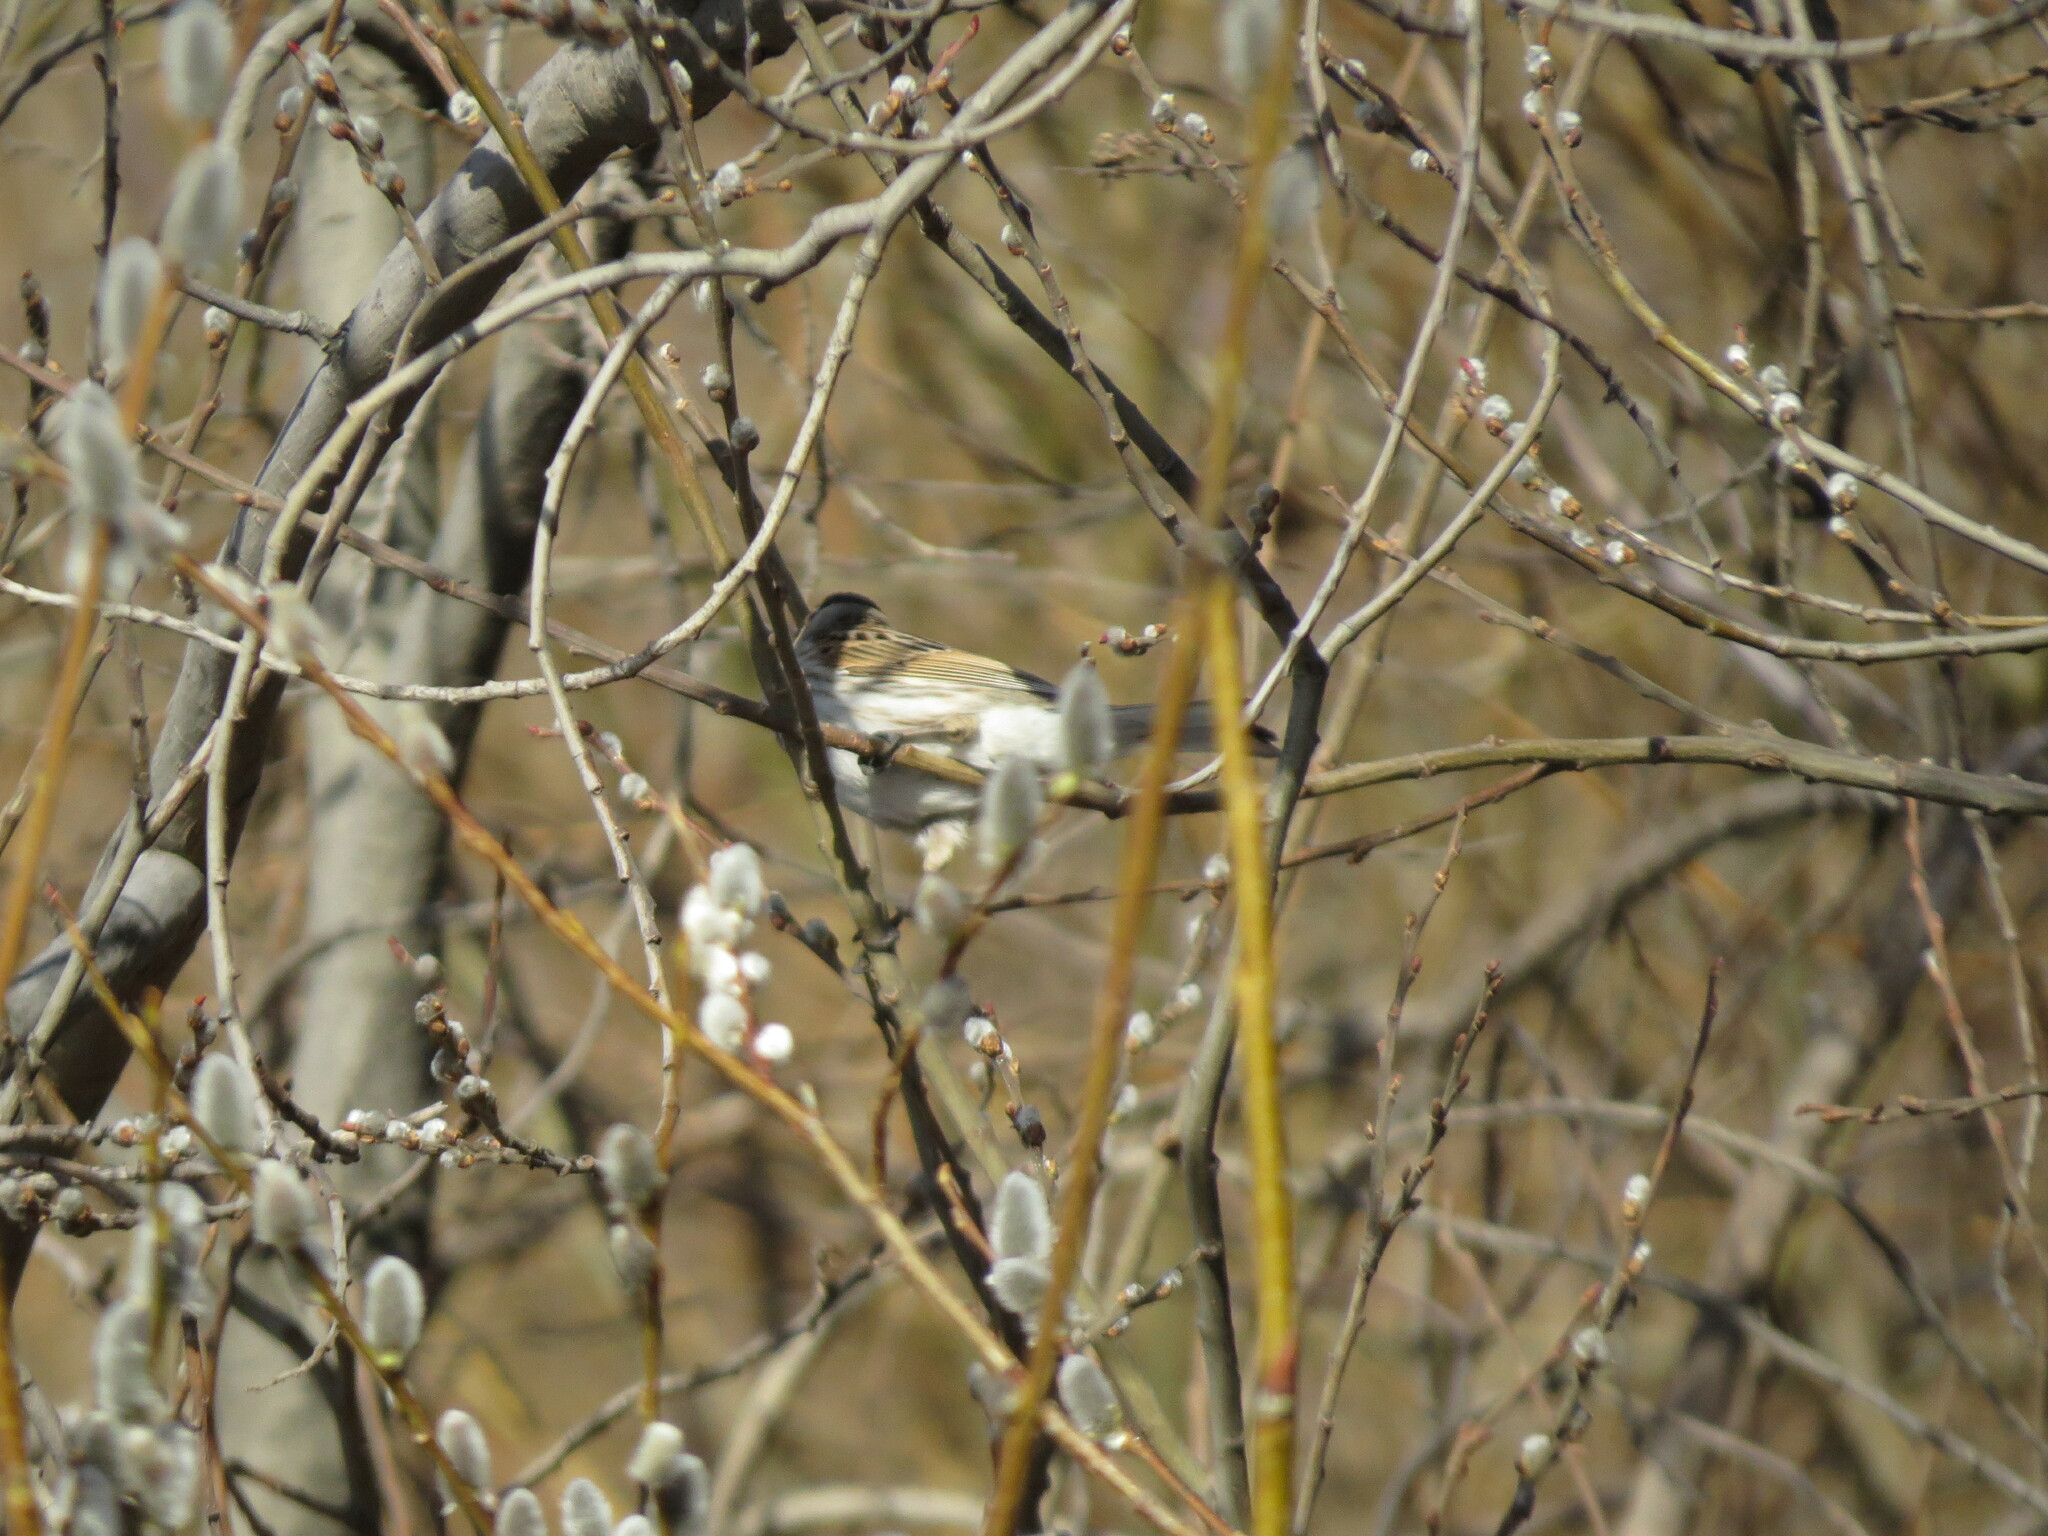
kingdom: Animalia
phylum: Chordata
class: Aves
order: Passeriformes
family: Emberizidae
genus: Emberiza
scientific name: Emberiza schoeniclus
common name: Reed bunting
